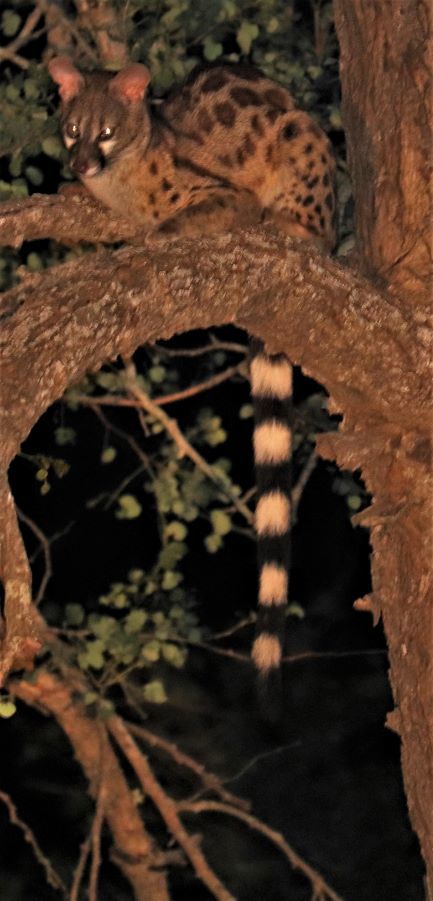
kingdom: Animalia
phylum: Chordata
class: Mammalia
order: Carnivora
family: Viverridae
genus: Genetta
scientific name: Genetta maculata
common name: Rusty-spotted genet
